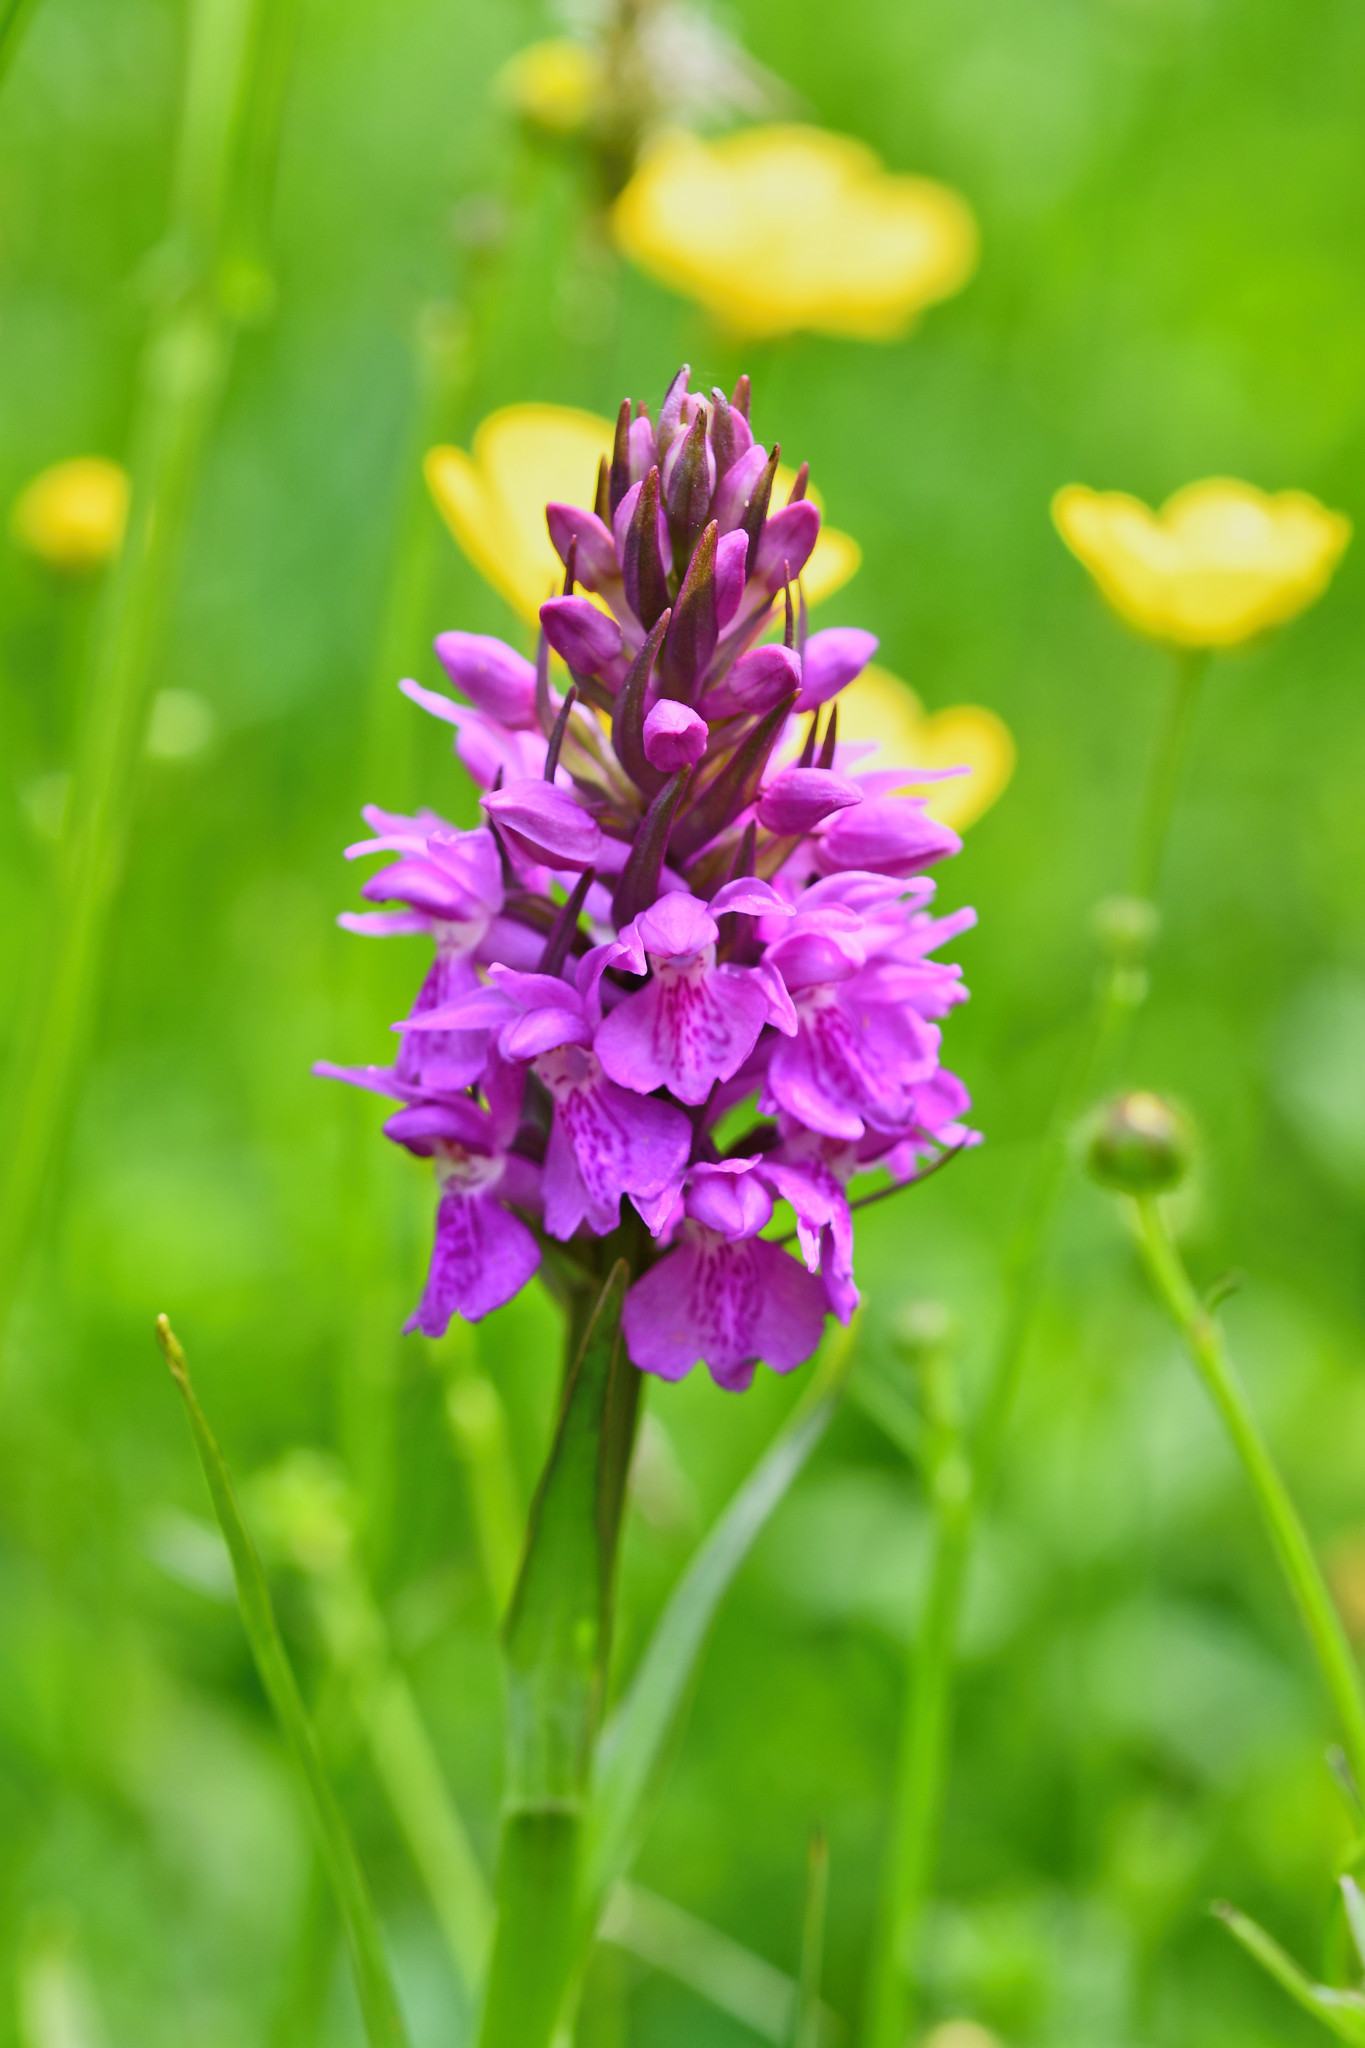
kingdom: Plantae
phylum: Tracheophyta
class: Liliopsida
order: Asparagales
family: Orchidaceae
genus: Dactylorhiza
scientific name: Dactylorhiza maculata
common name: Heath spotted-orchid
